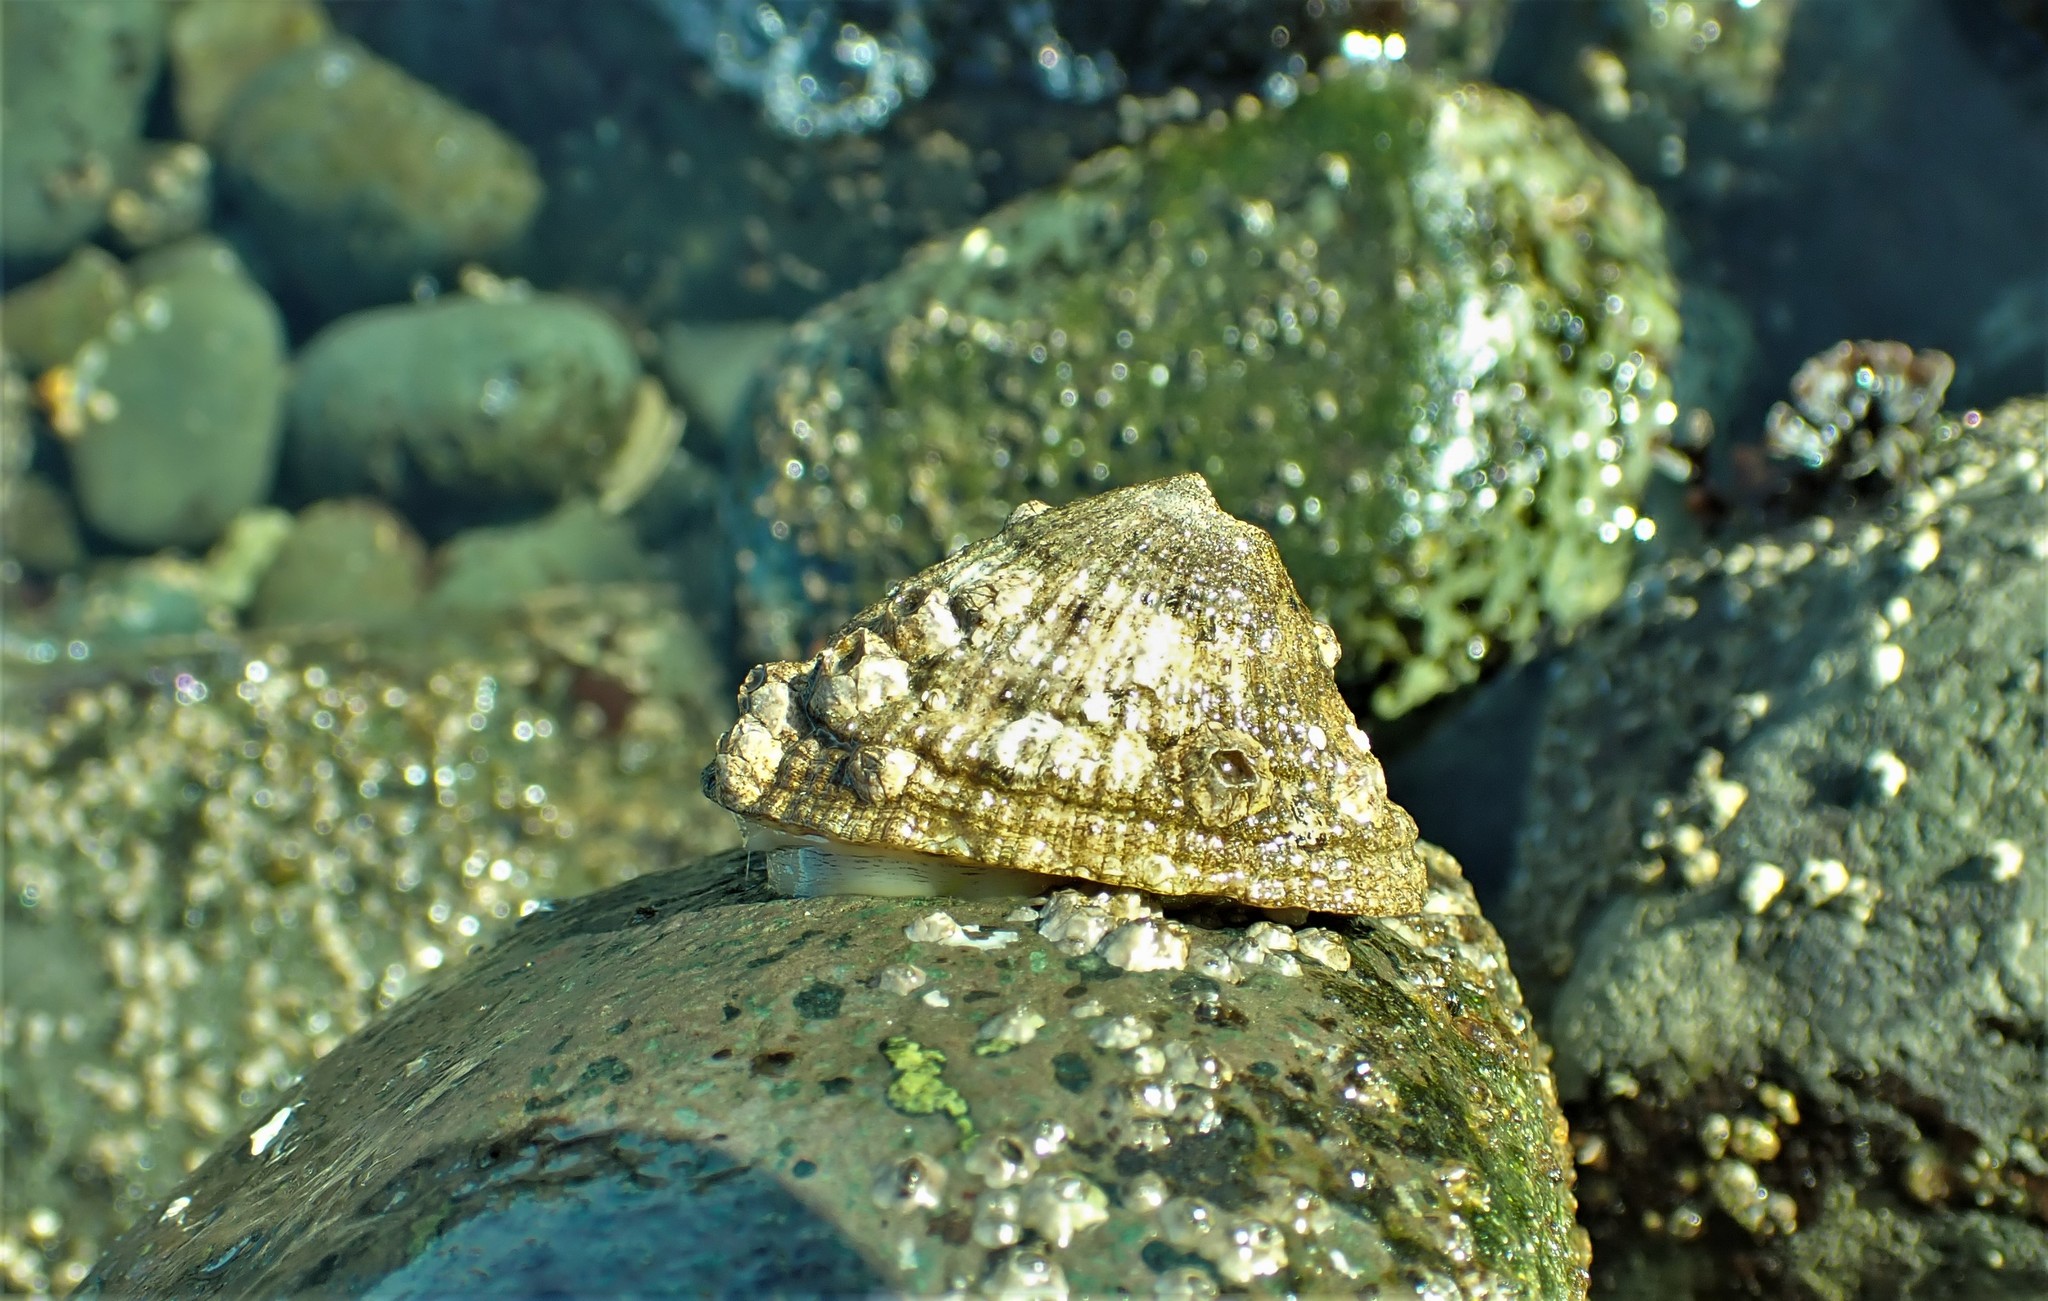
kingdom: Animalia
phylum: Mollusca
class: Gastropoda
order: Lepetellida
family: Fissurellidae
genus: Diodora
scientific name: Diodora aspera
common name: Rough keyhole limpet
